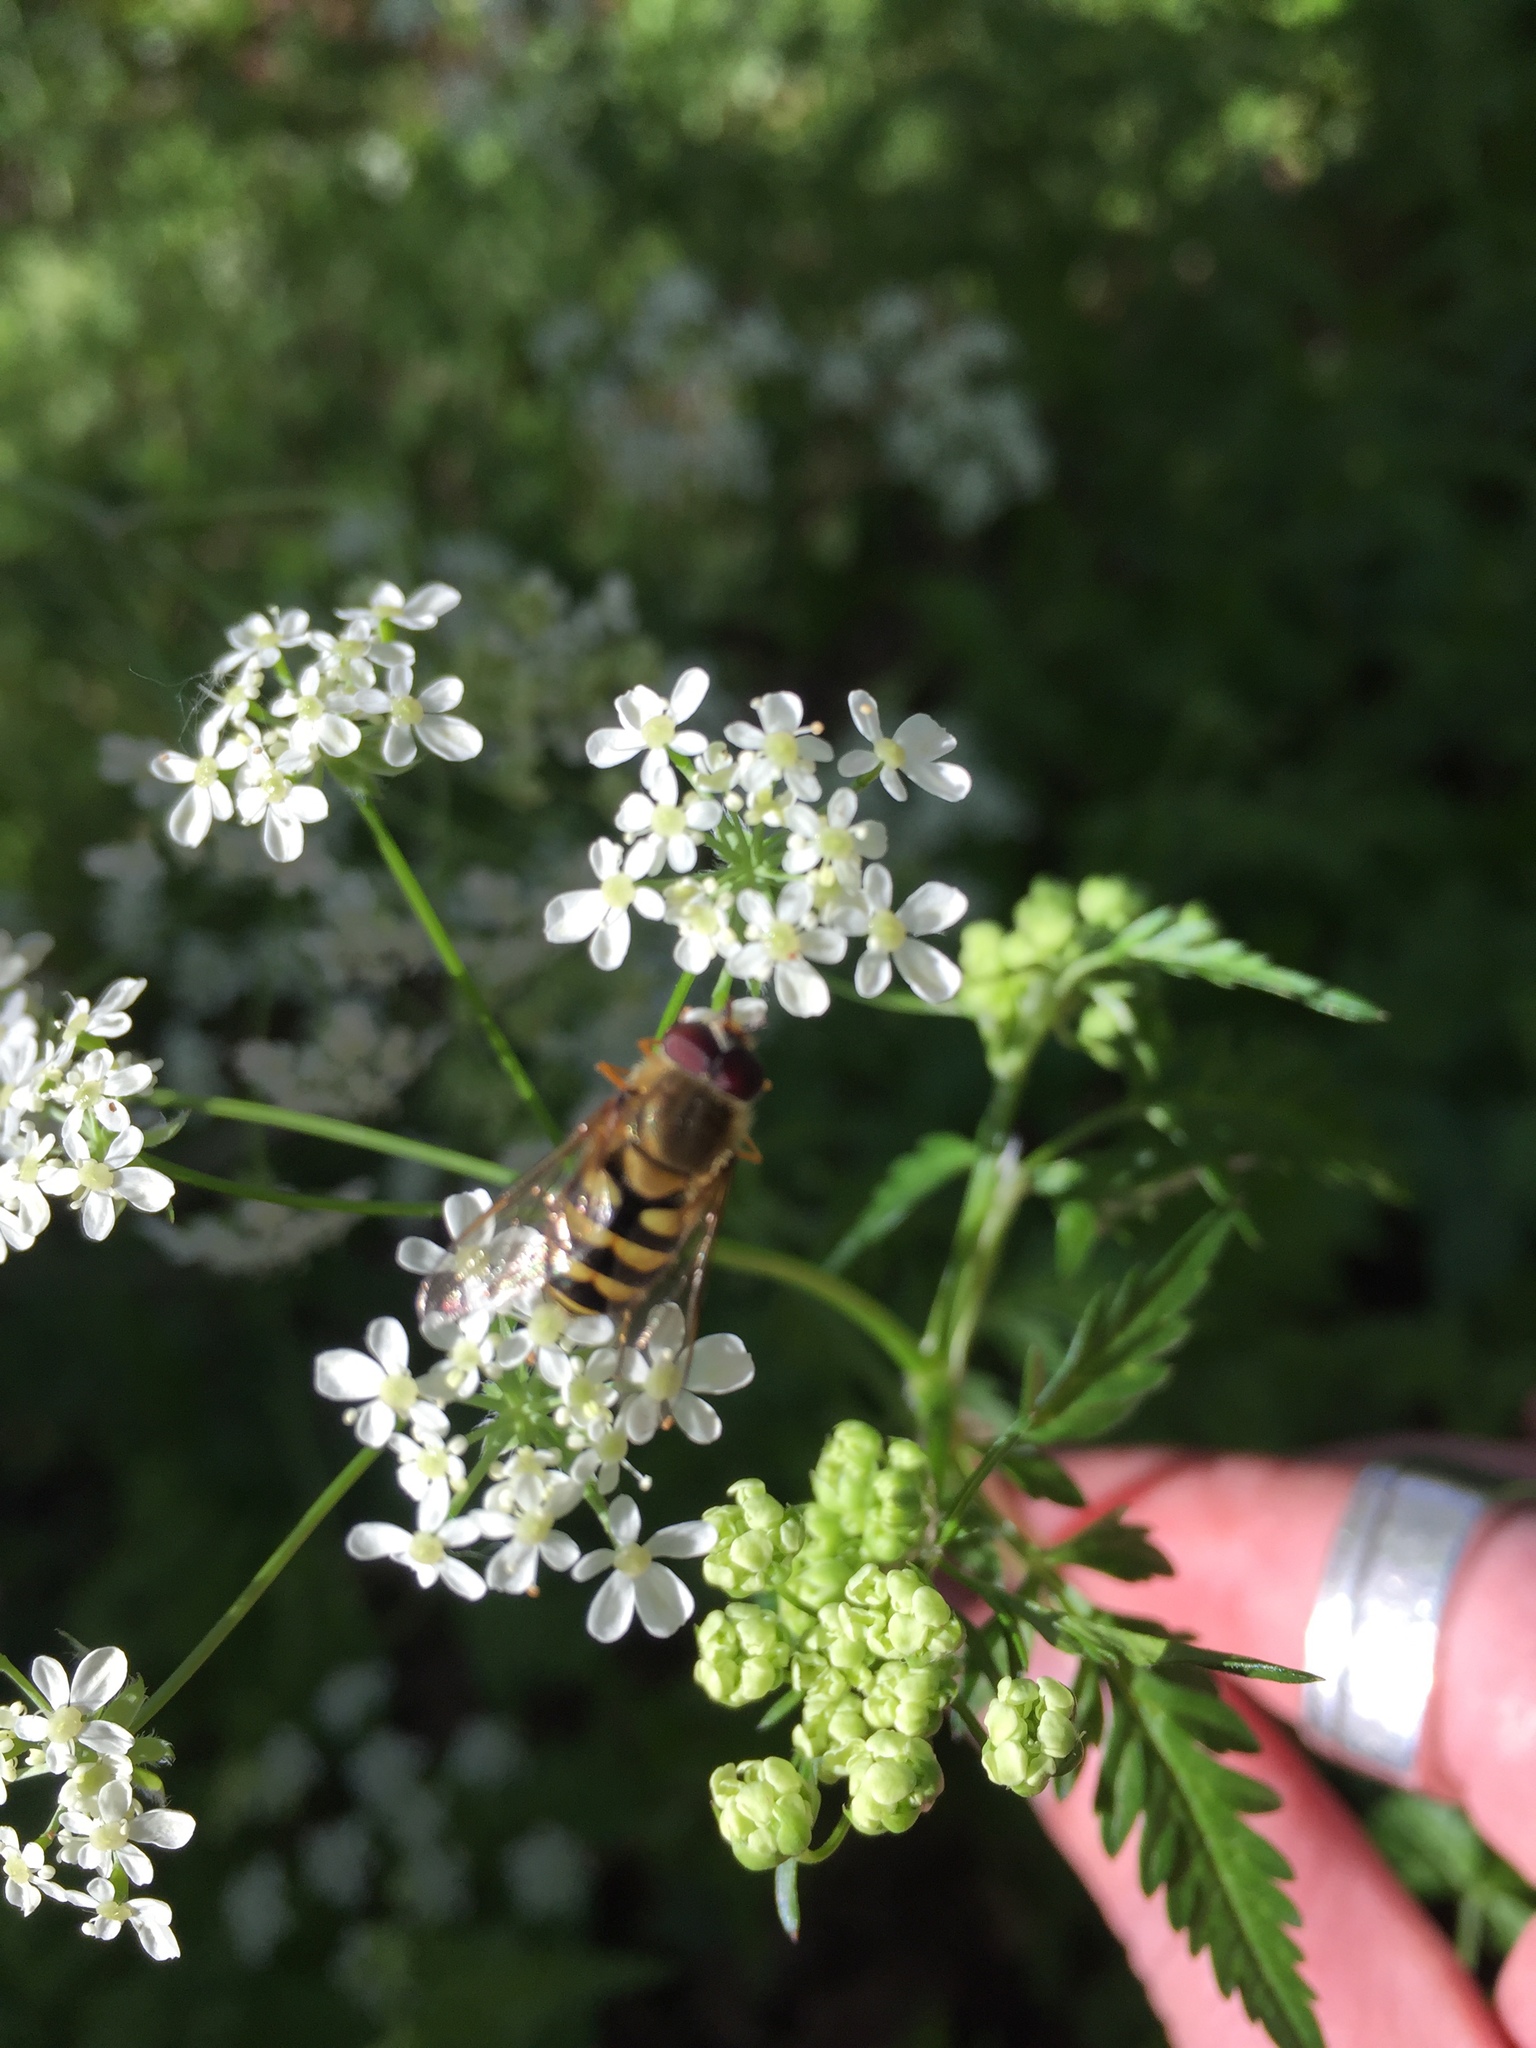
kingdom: Animalia
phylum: Arthropoda
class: Insecta
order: Diptera
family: Syrphidae
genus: Syrphus
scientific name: Syrphus
